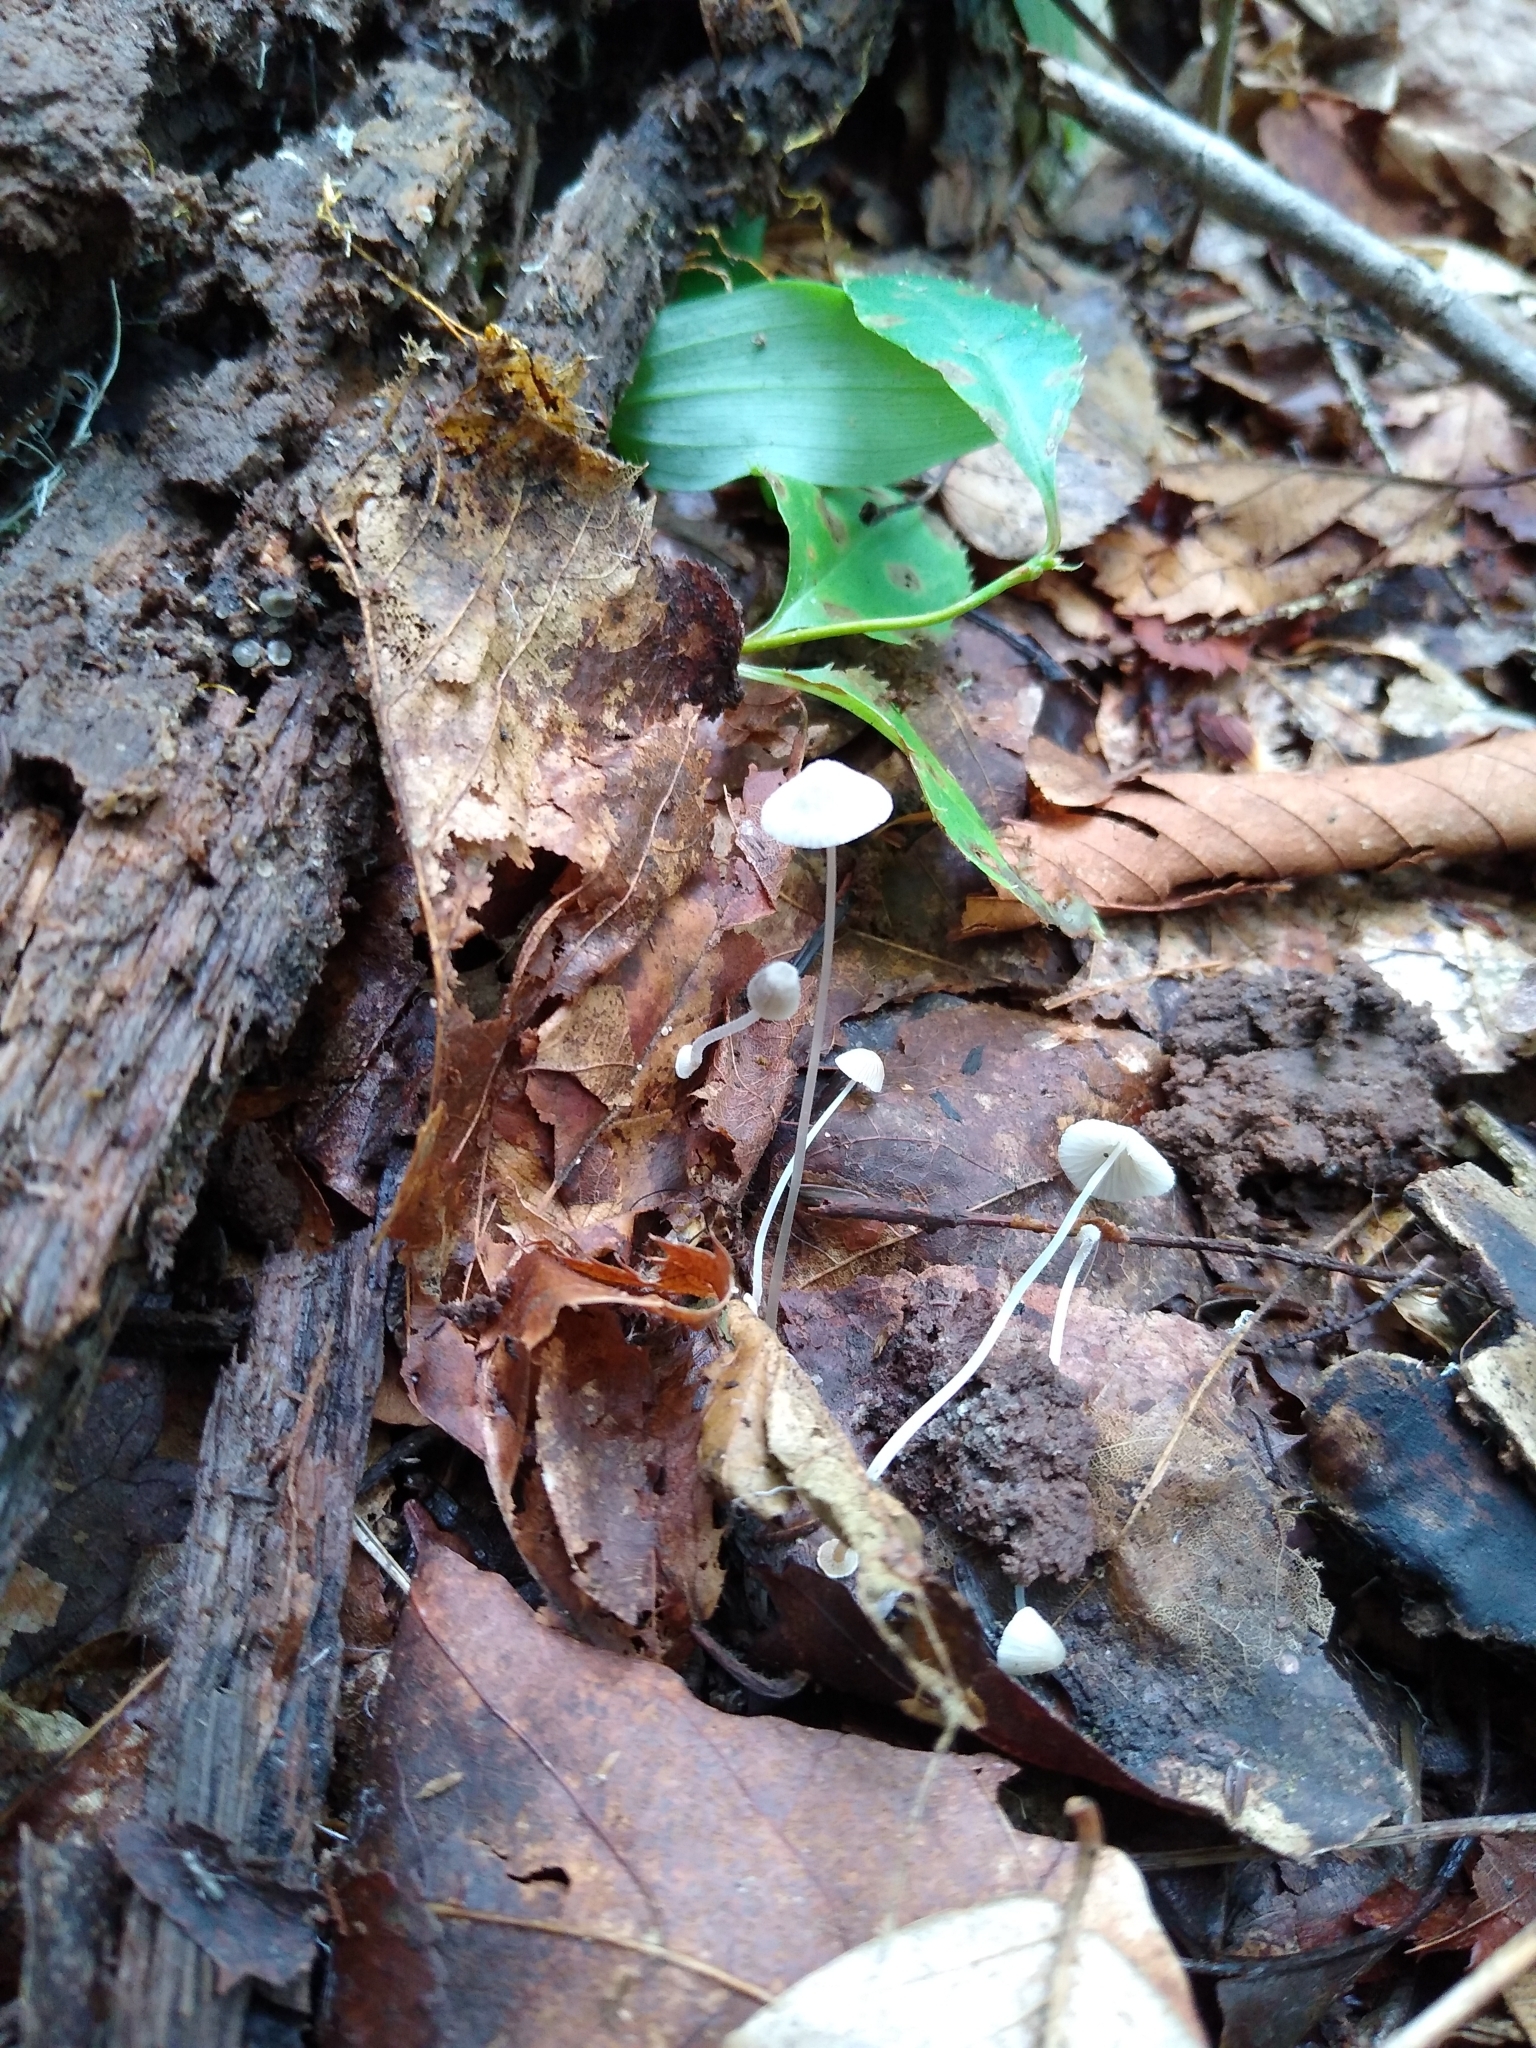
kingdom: Fungi
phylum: Basidiomycota
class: Agaricomycetes
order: Agaricales
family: Mycenaceae
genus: Mycena
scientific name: Mycena stylobates
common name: Bulbous bonnet
